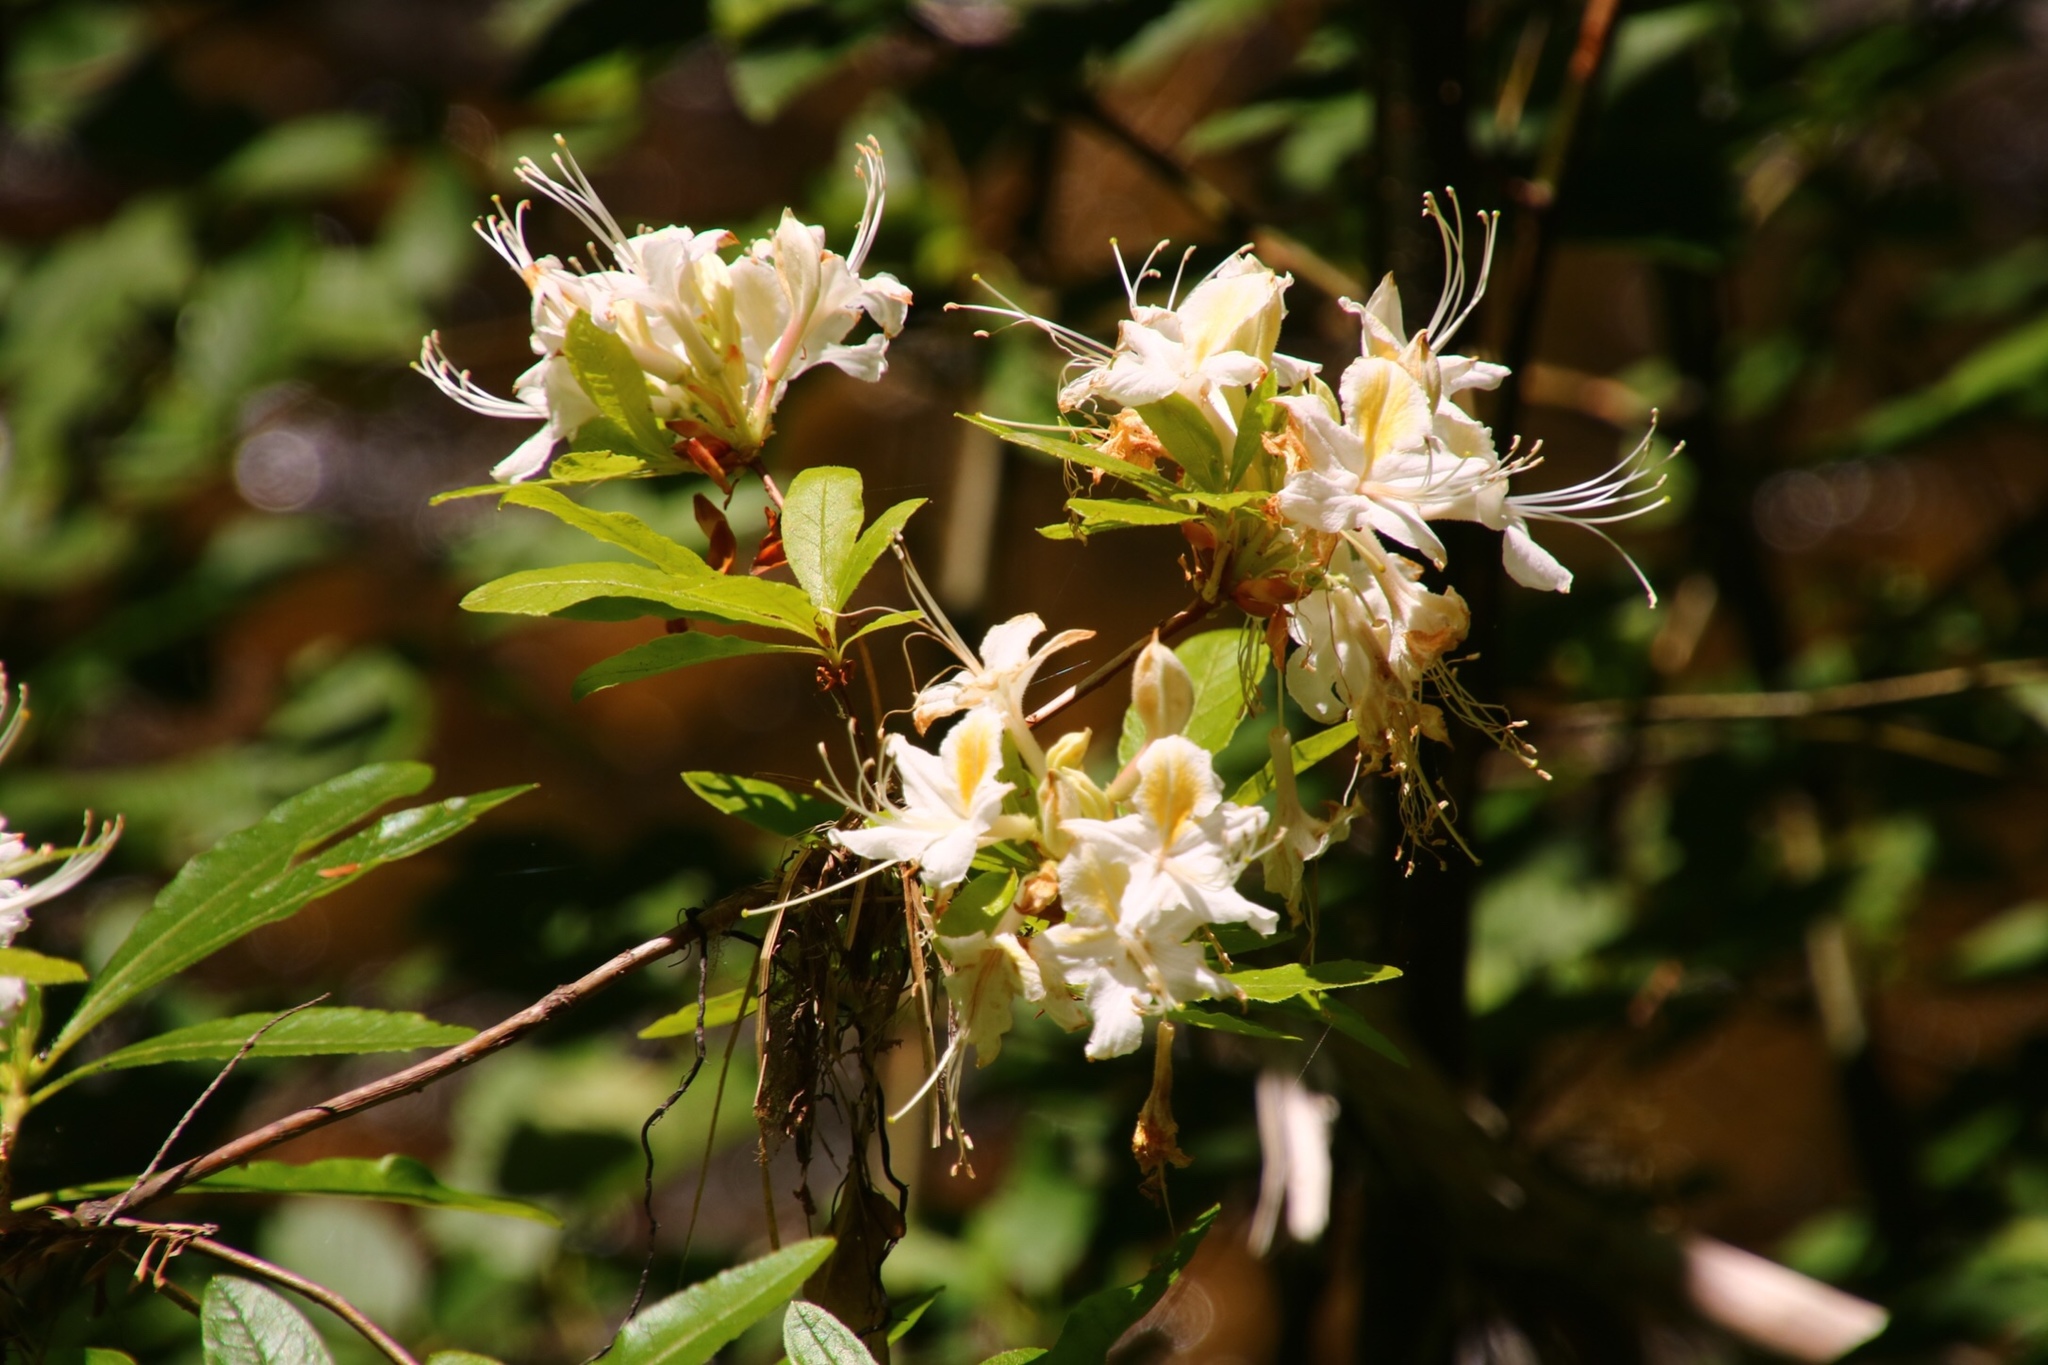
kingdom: Plantae
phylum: Tracheophyta
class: Magnoliopsida
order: Ericales
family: Ericaceae
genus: Rhododendron
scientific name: Rhododendron occidentale
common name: Western azalea
